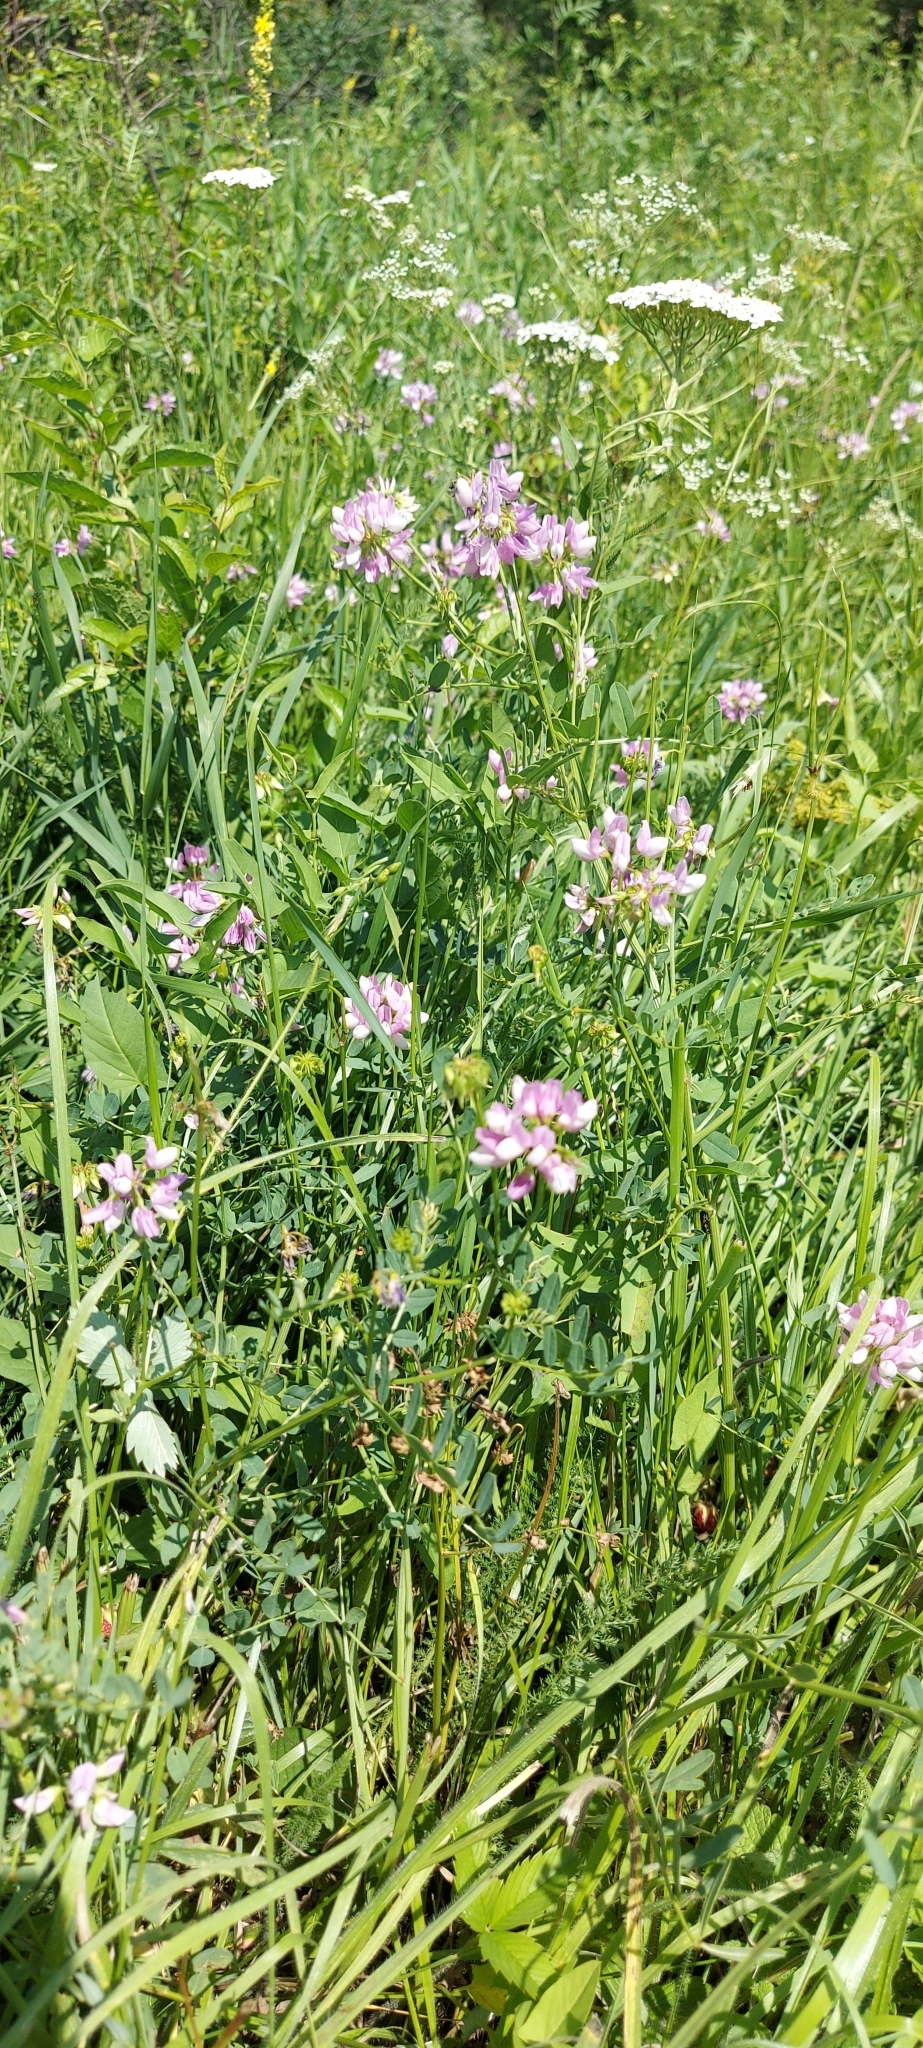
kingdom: Plantae
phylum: Tracheophyta
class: Magnoliopsida
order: Fabales
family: Fabaceae
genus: Coronilla
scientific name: Coronilla varia
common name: Crownvetch
